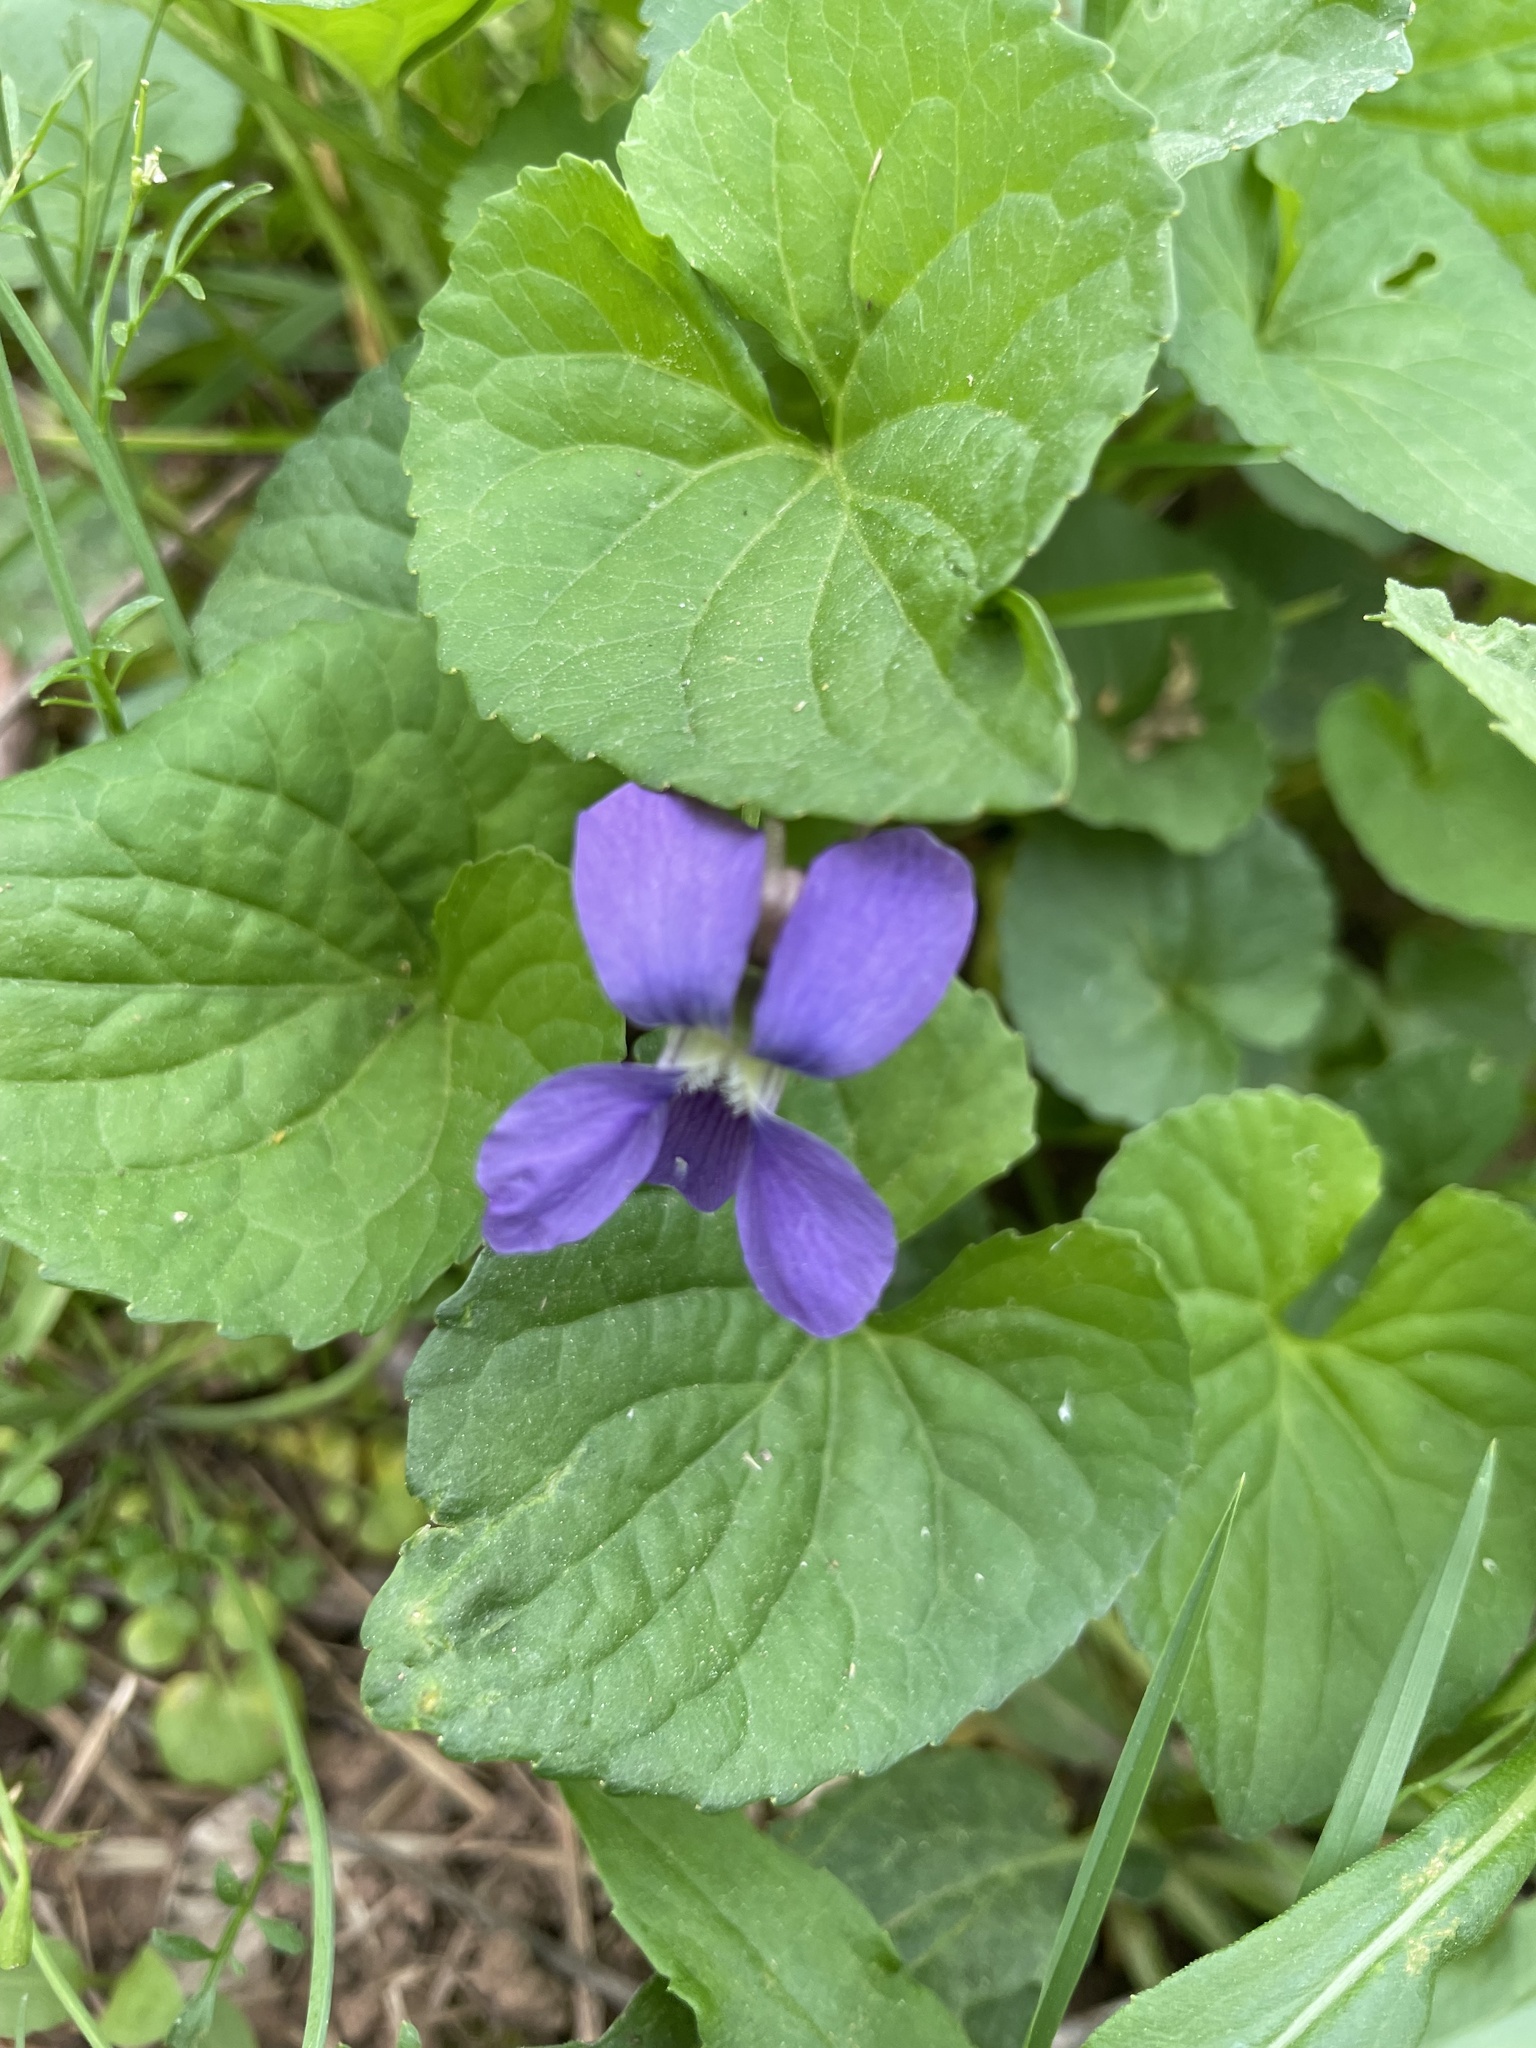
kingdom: Plantae
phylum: Tracheophyta
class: Magnoliopsida
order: Malpighiales
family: Violaceae
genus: Viola
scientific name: Viola sororia
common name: Dooryard violet
